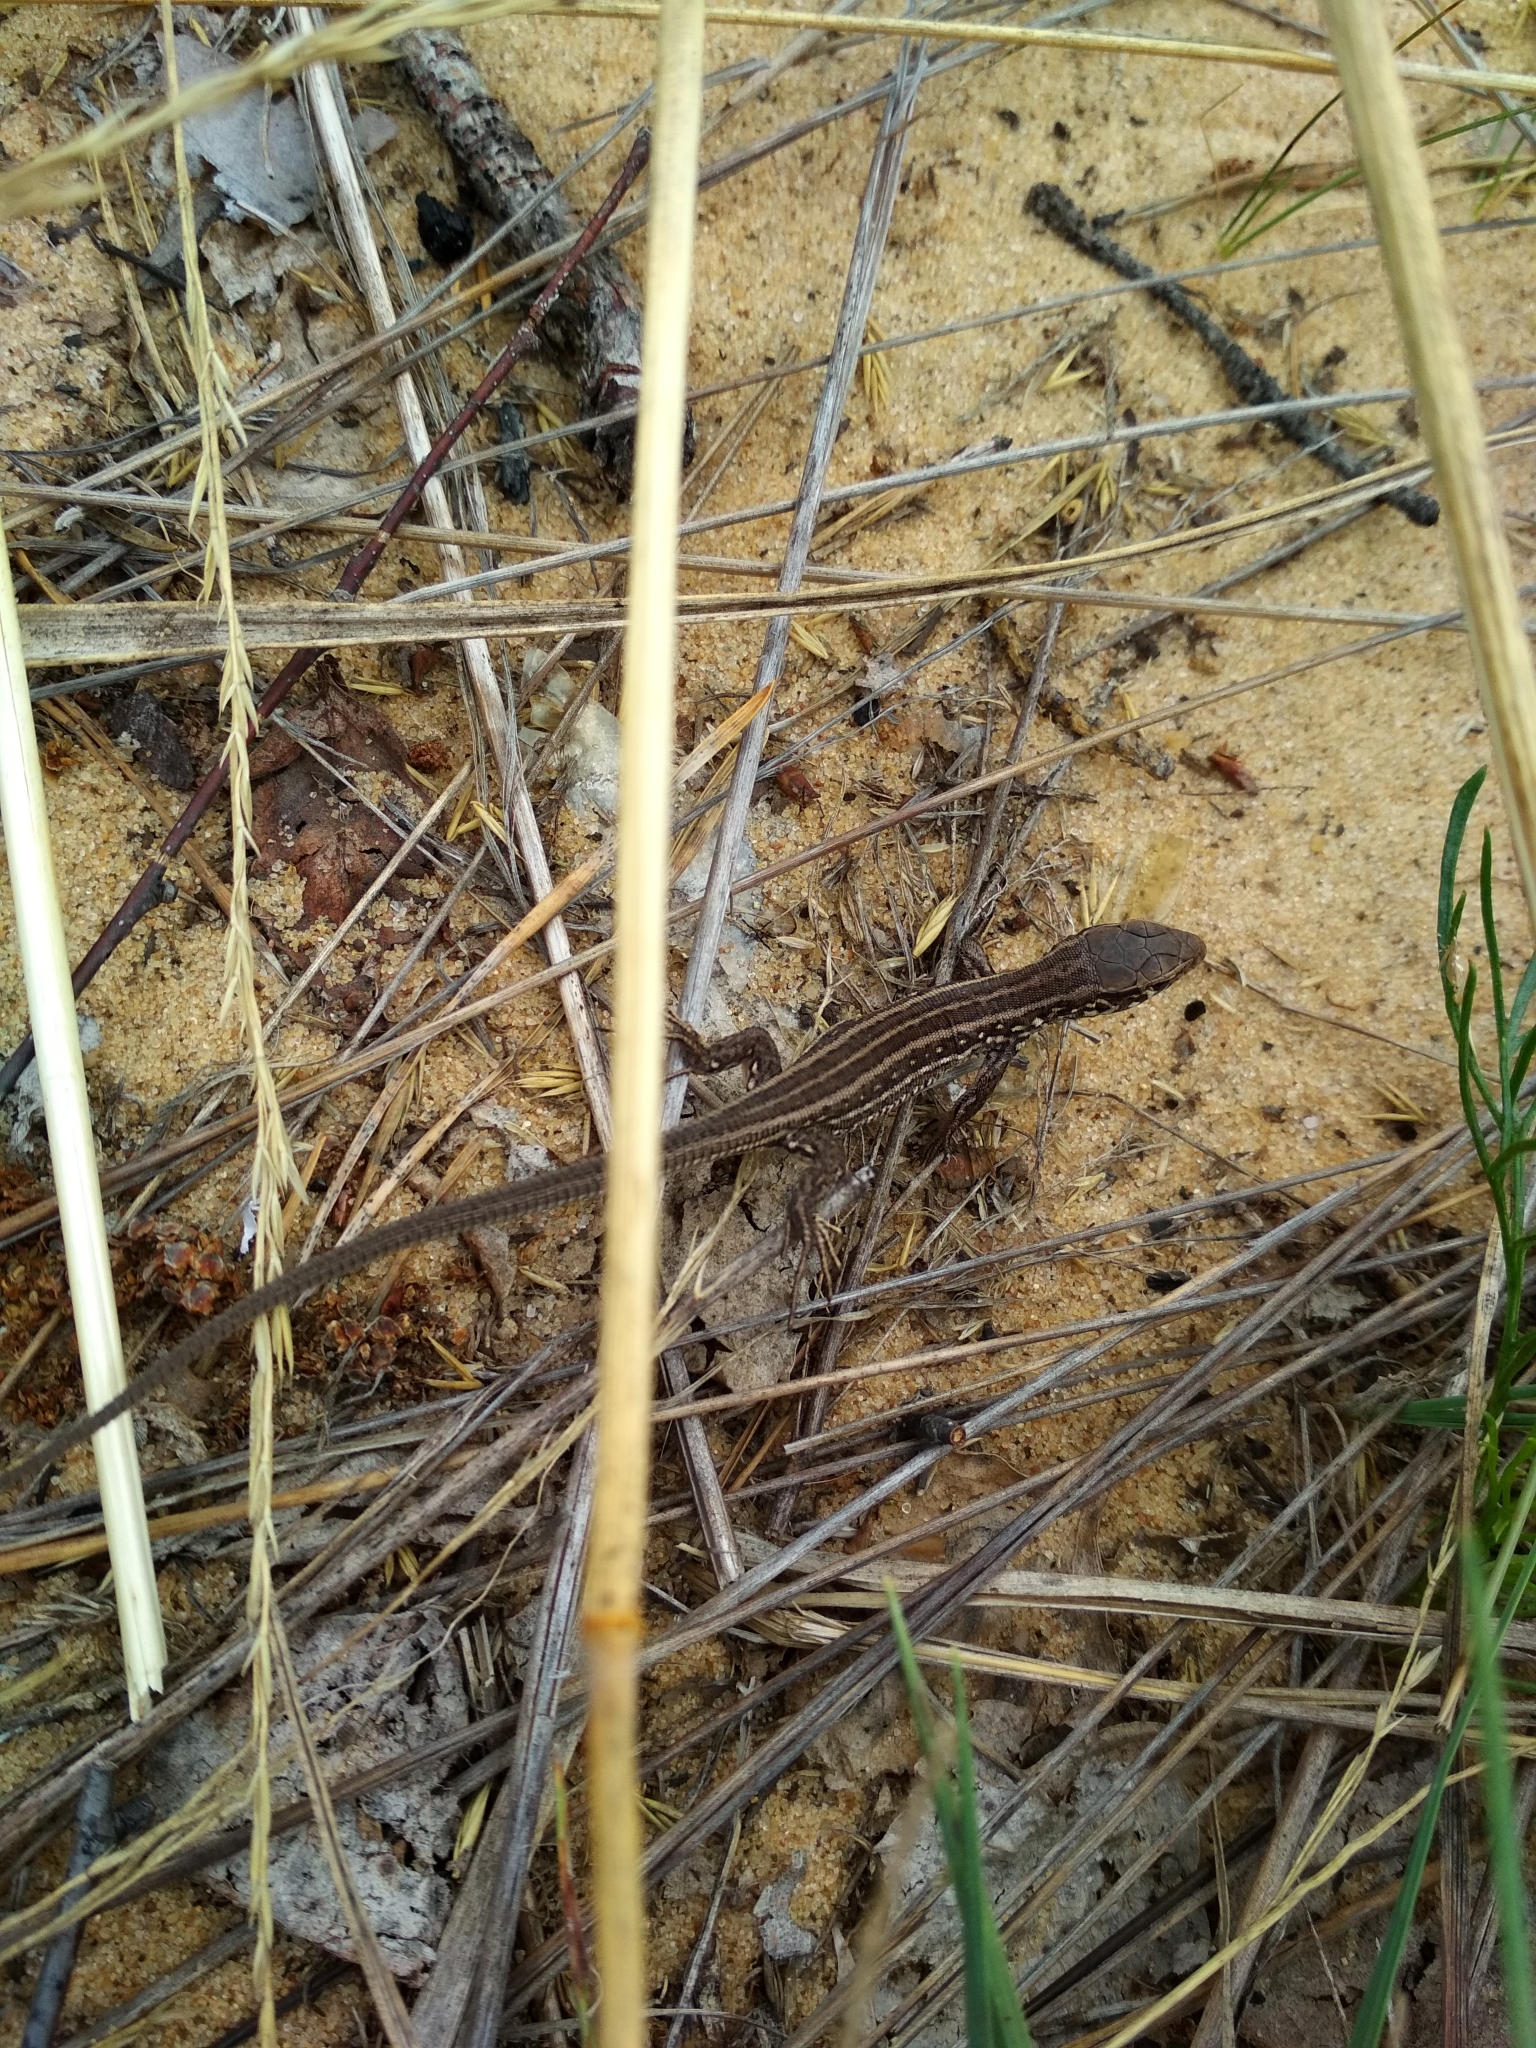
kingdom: Animalia
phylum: Chordata
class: Squamata
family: Lacertidae
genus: Lacerta
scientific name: Lacerta agilis
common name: Sand lizard
